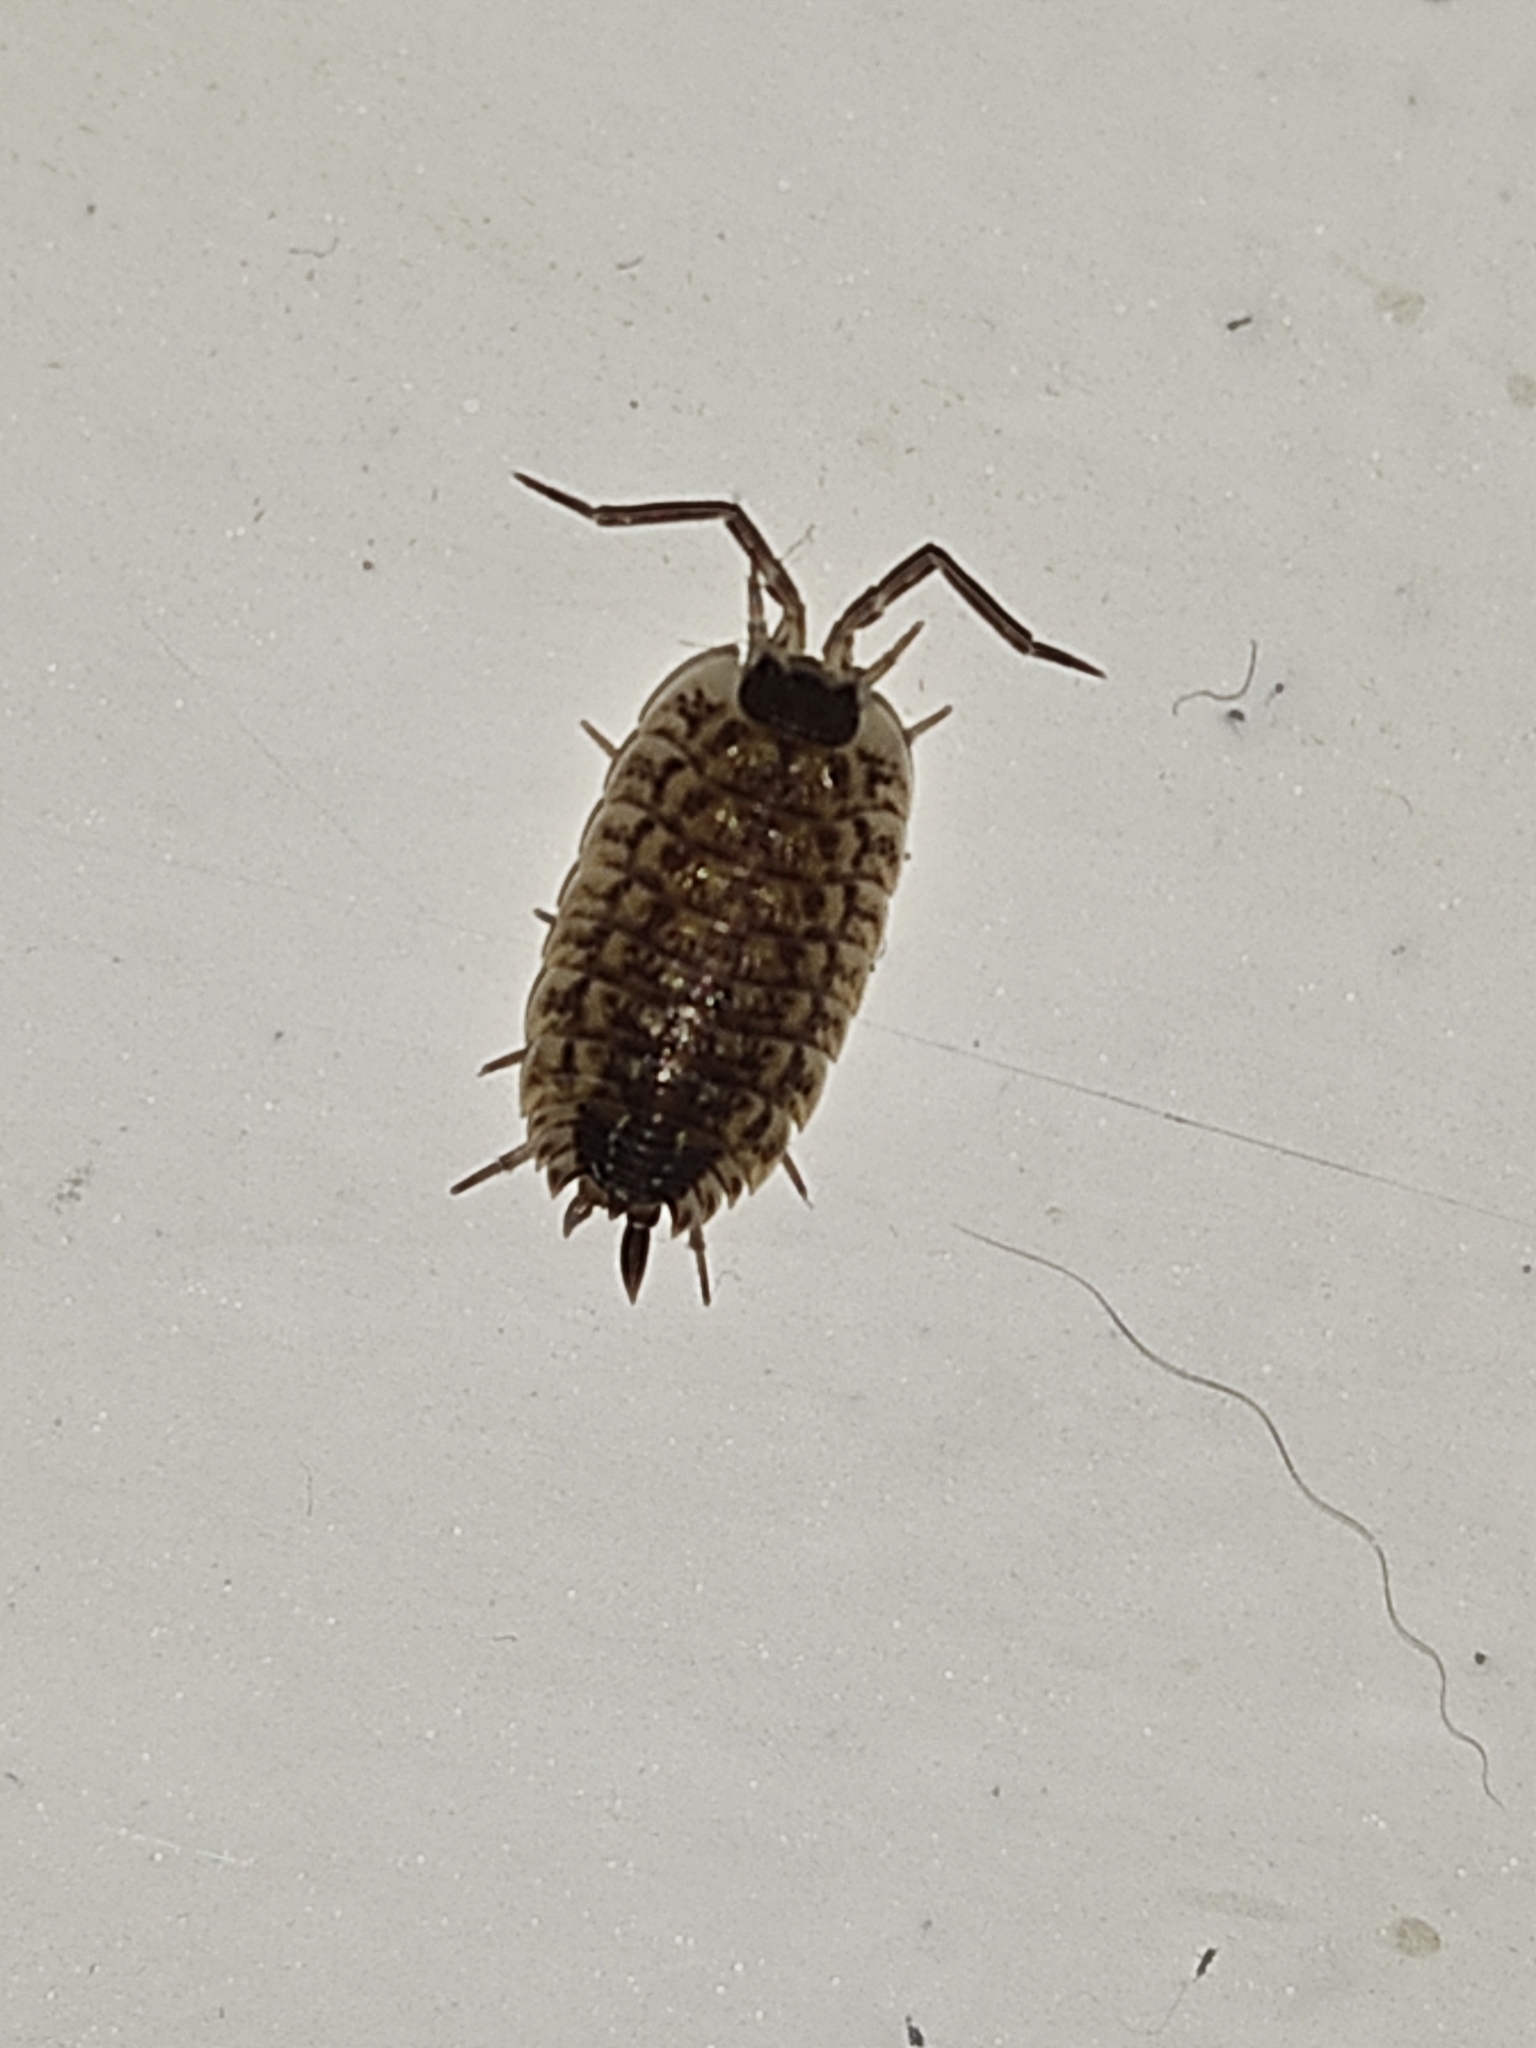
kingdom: Animalia
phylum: Arthropoda
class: Malacostraca
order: Isopoda
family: Porcellionidae
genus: Porcellio
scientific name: Porcellio spinicornis
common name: Painted woodlouse
